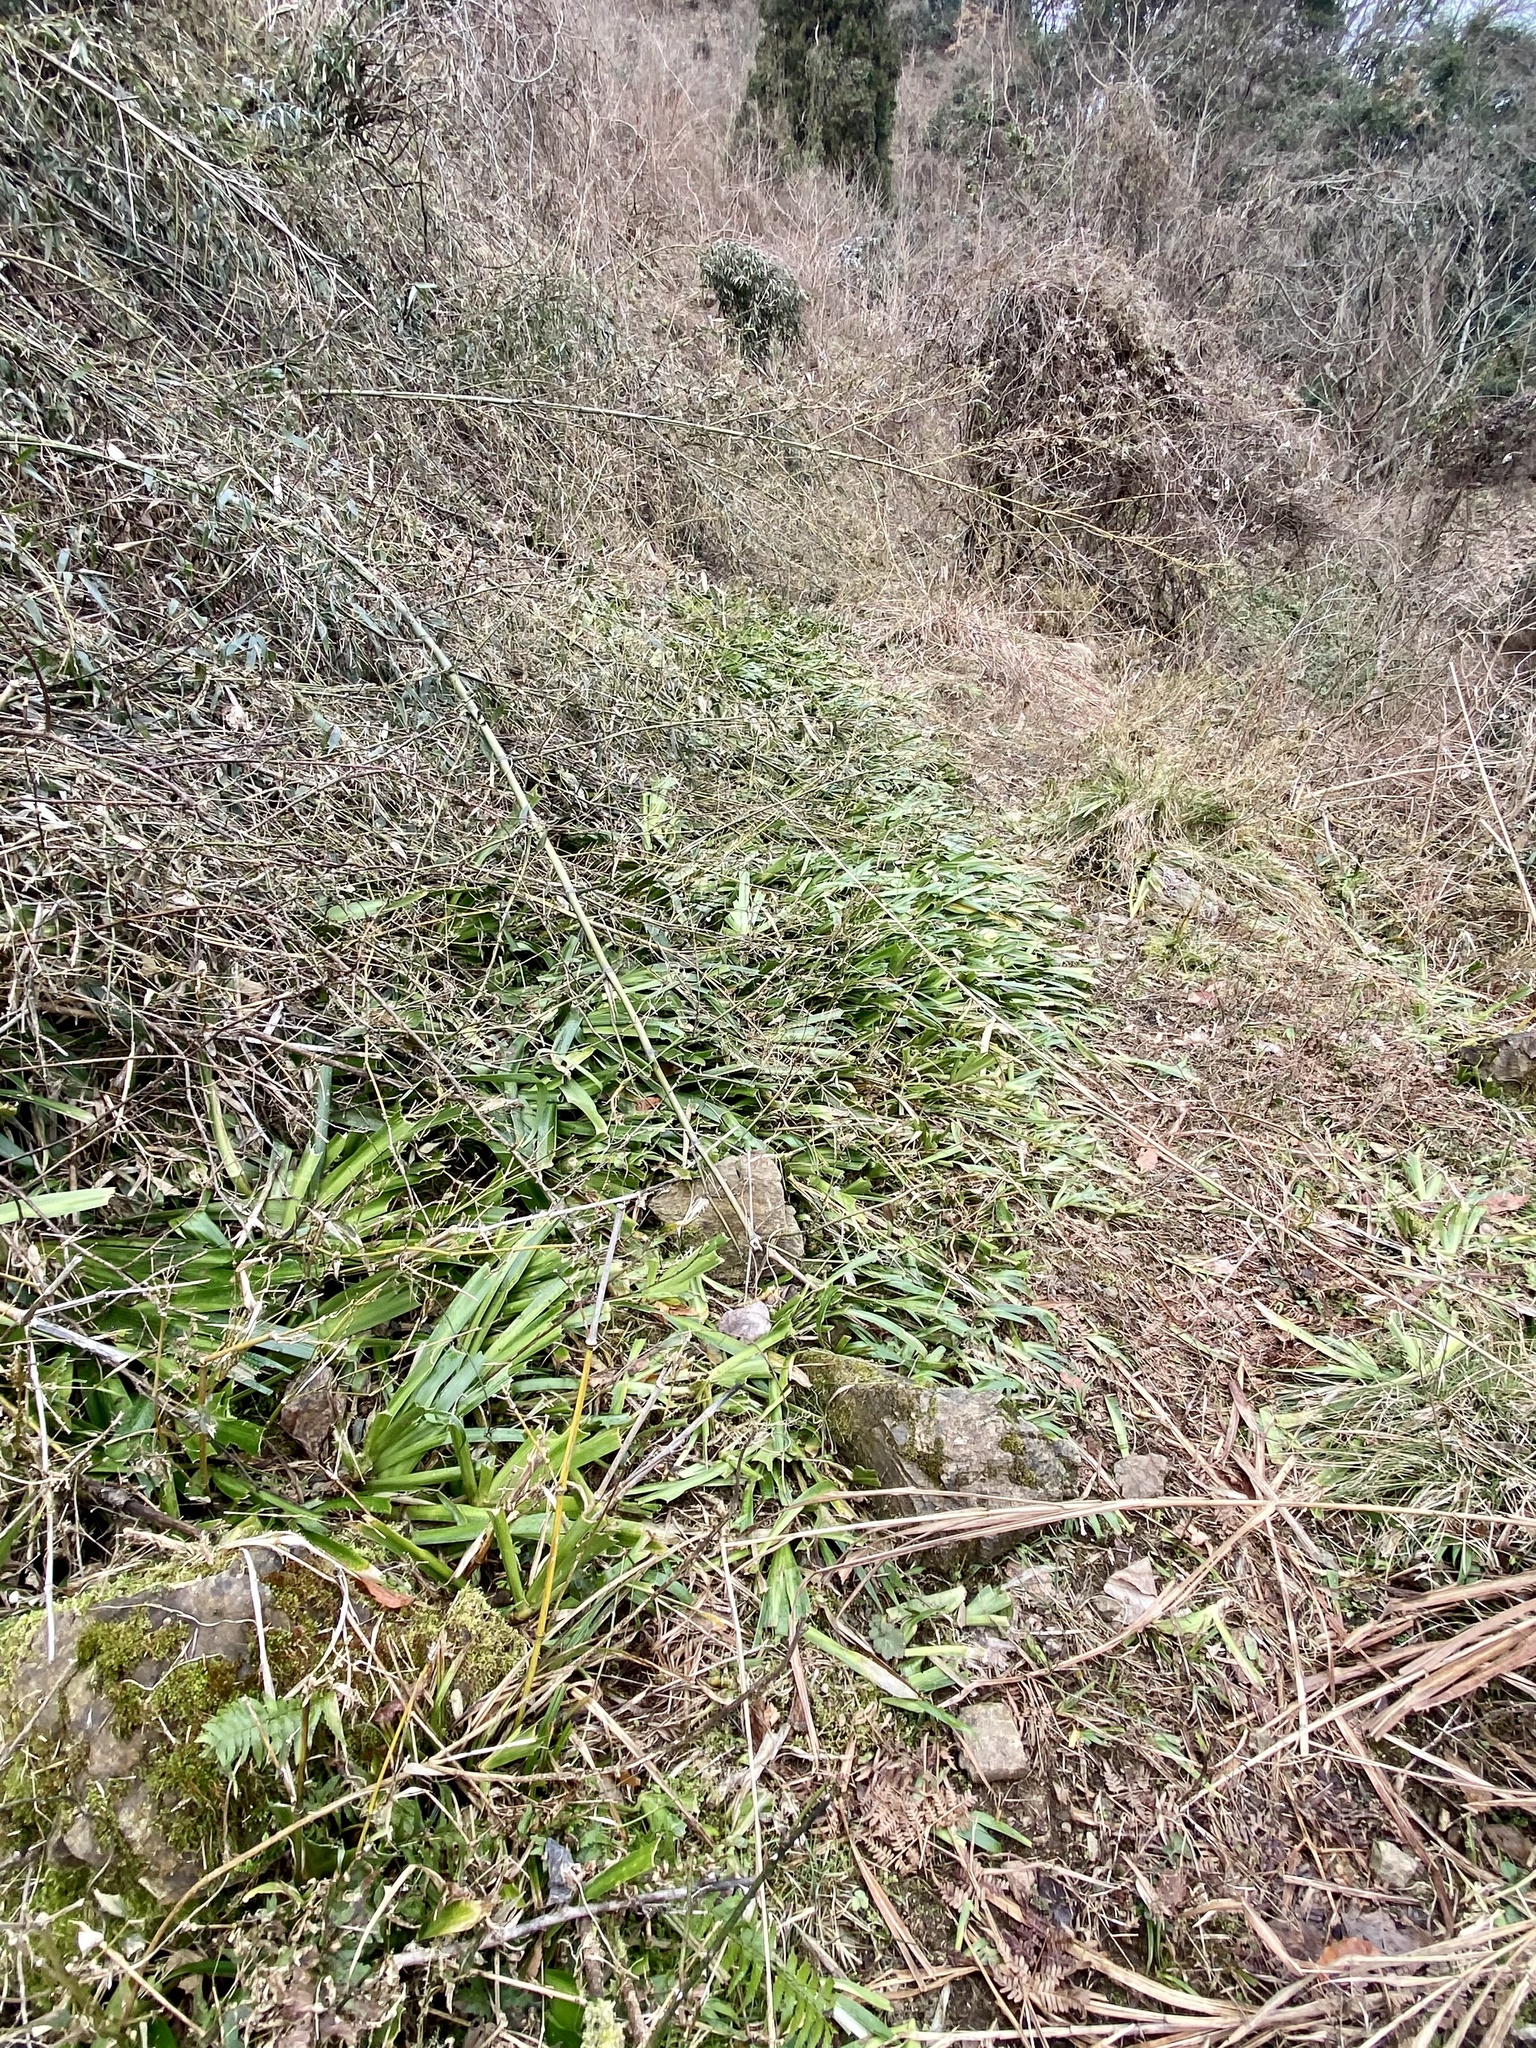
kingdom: Plantae
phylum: Tracheophyta
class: Liliopsida
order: Asparagales
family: Iridaceae
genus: Iris
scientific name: Iris japonica
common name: Butterfly-flower
